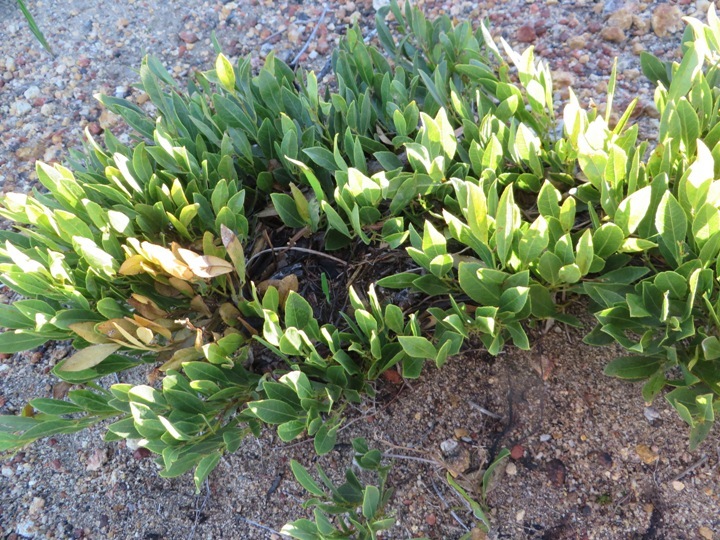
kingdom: Plantae
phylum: Tracheophyta
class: Magnoliopsida
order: Fabales
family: Fabaceae
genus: Psoralea
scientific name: Psoralea rotundifolia
